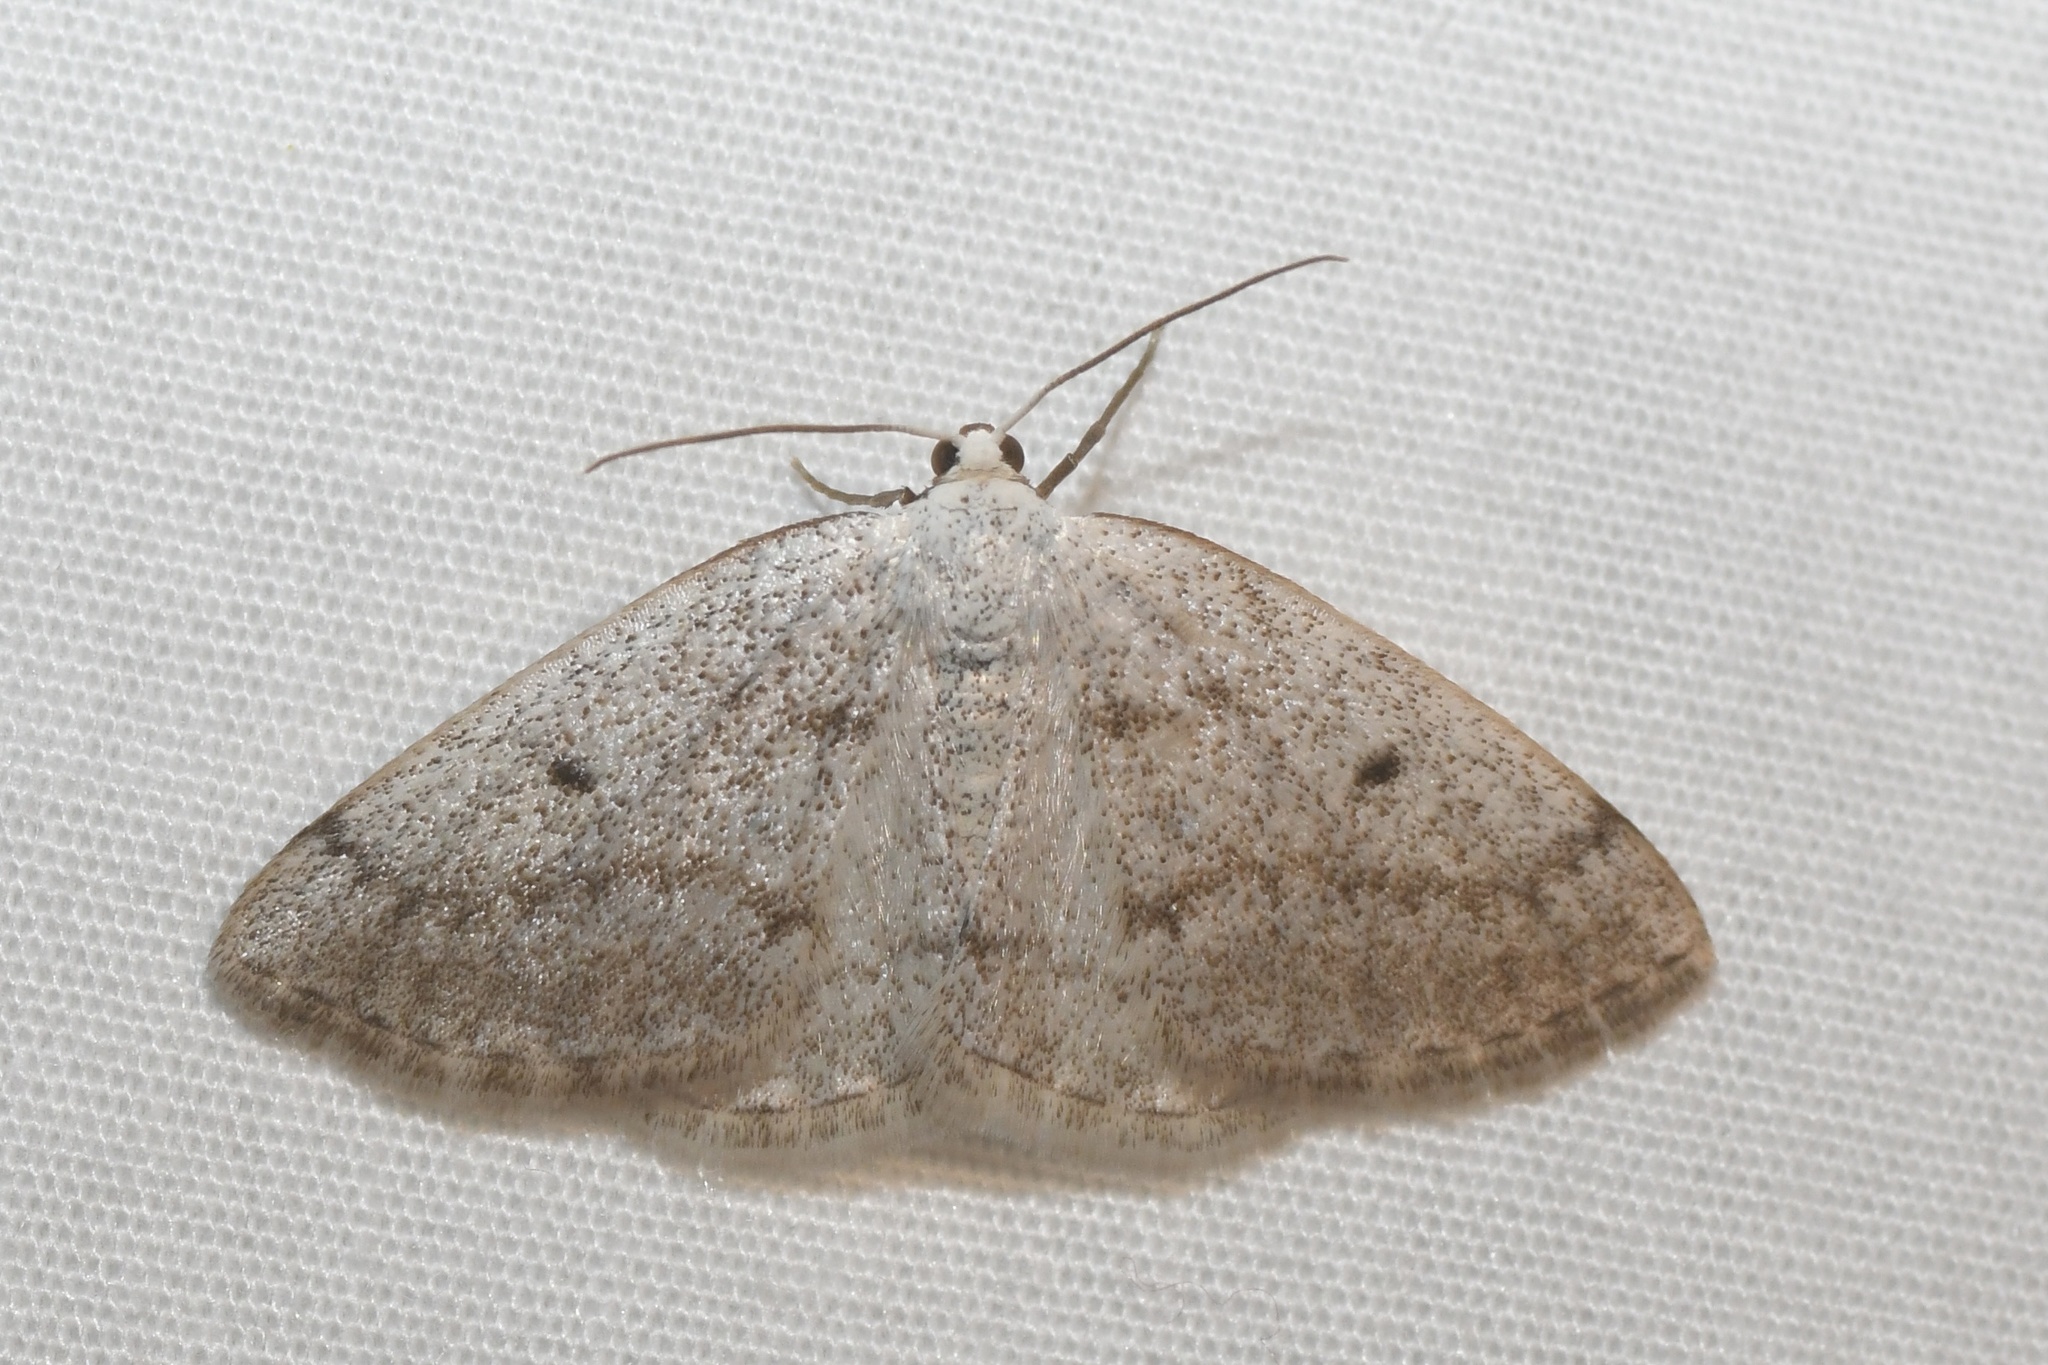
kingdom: Animalia
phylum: Arthropoda
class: Insecta
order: Lepidoptera
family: Geometridae
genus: Lomographa
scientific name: Lomographa glomeraria
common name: Gray spring moth
